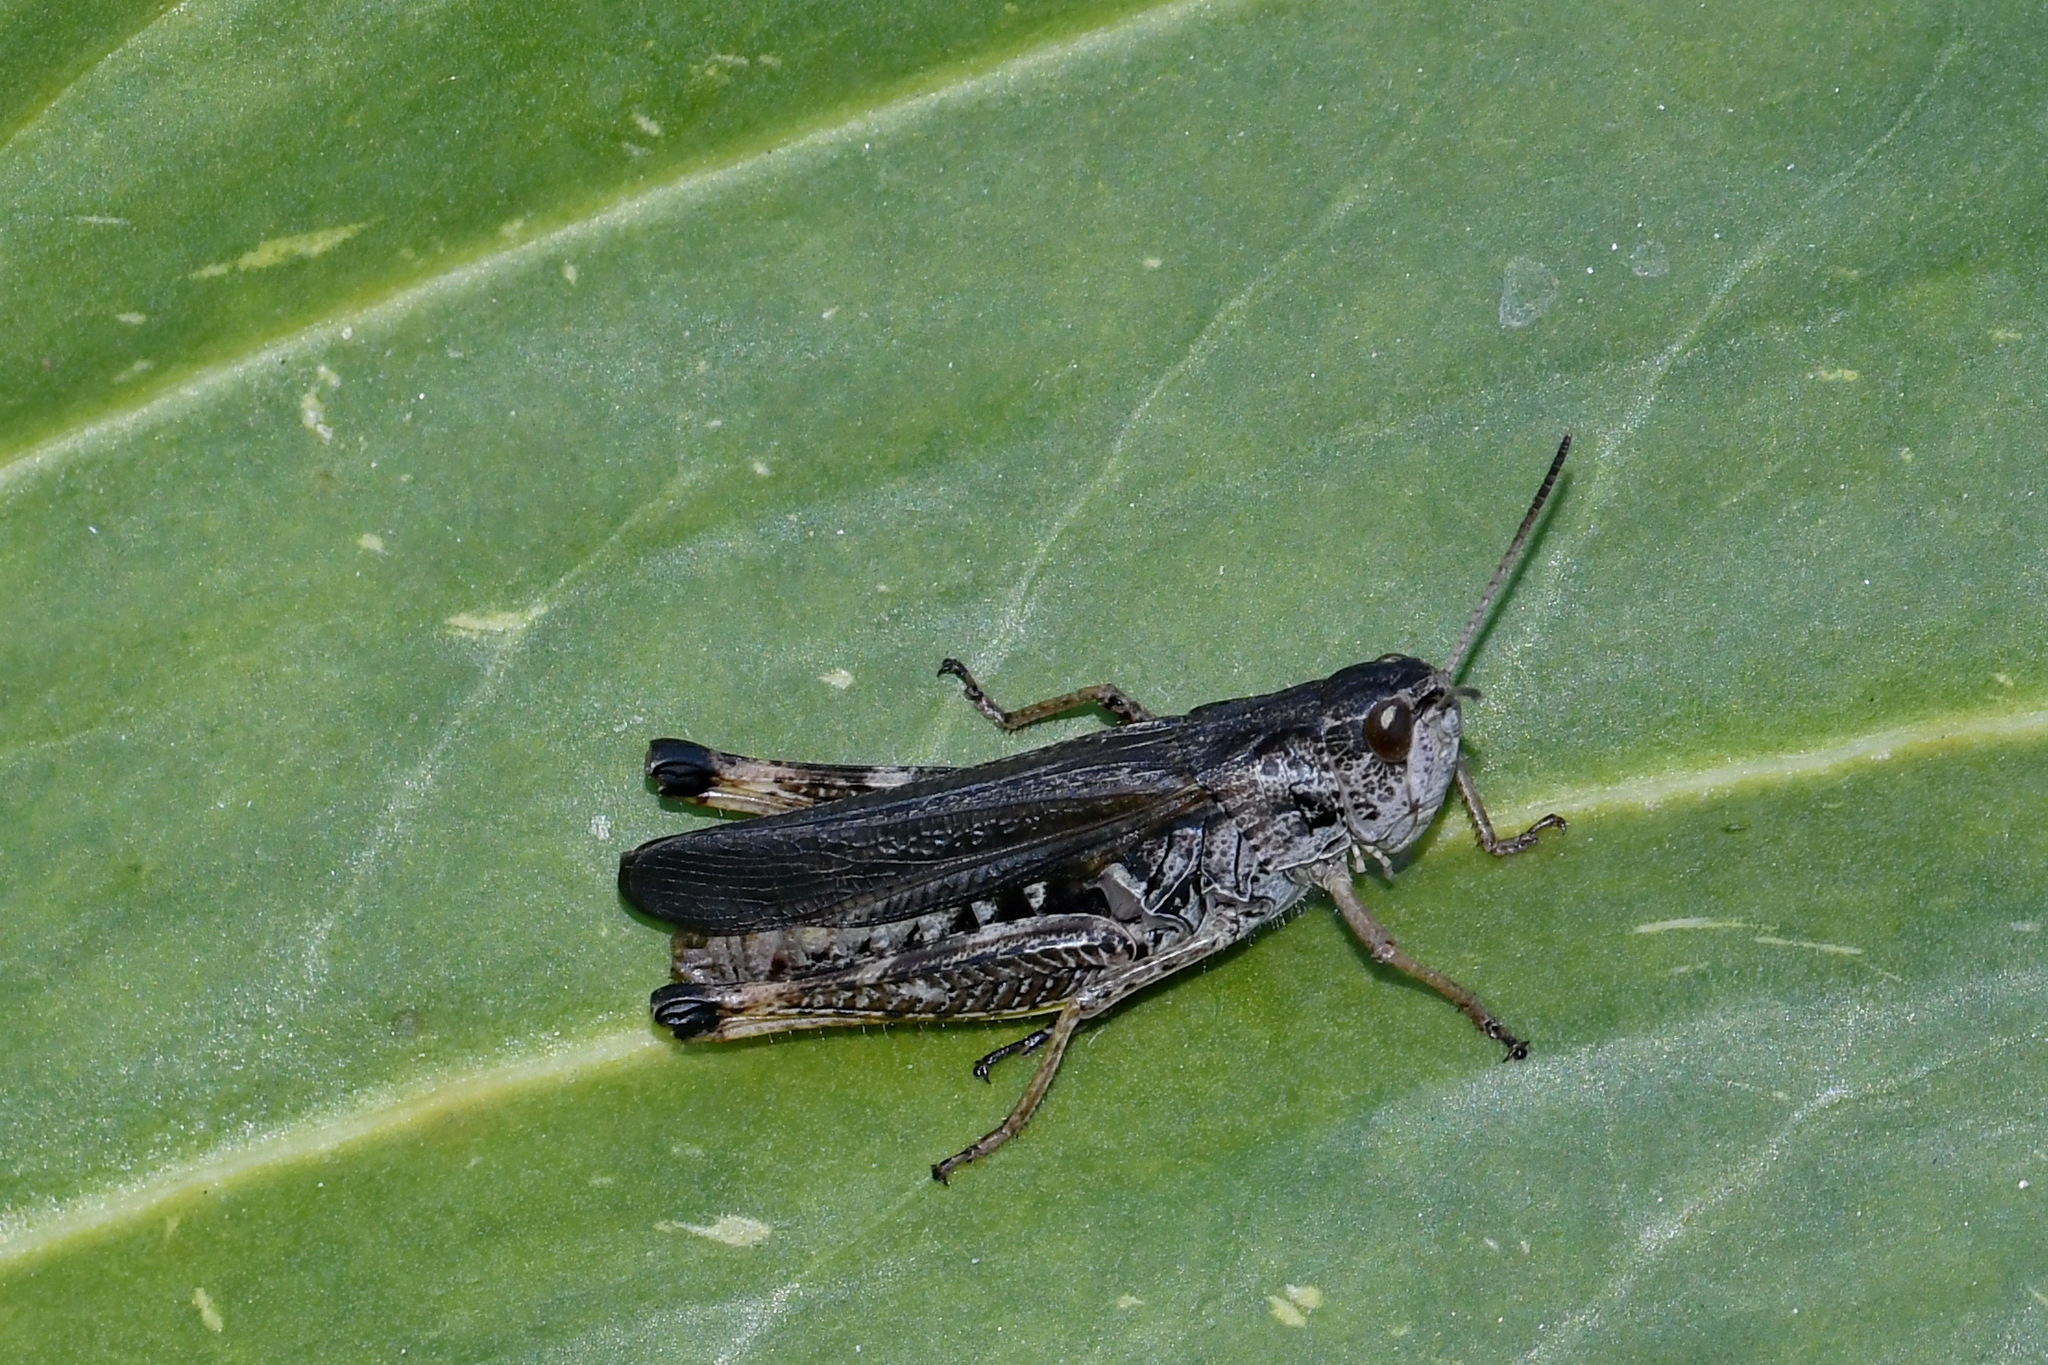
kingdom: Animalia
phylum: Arthropoda
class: Insecta
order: Orthoptera
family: Acrididae
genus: Stauroderus
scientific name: Stauroderus scalaris
